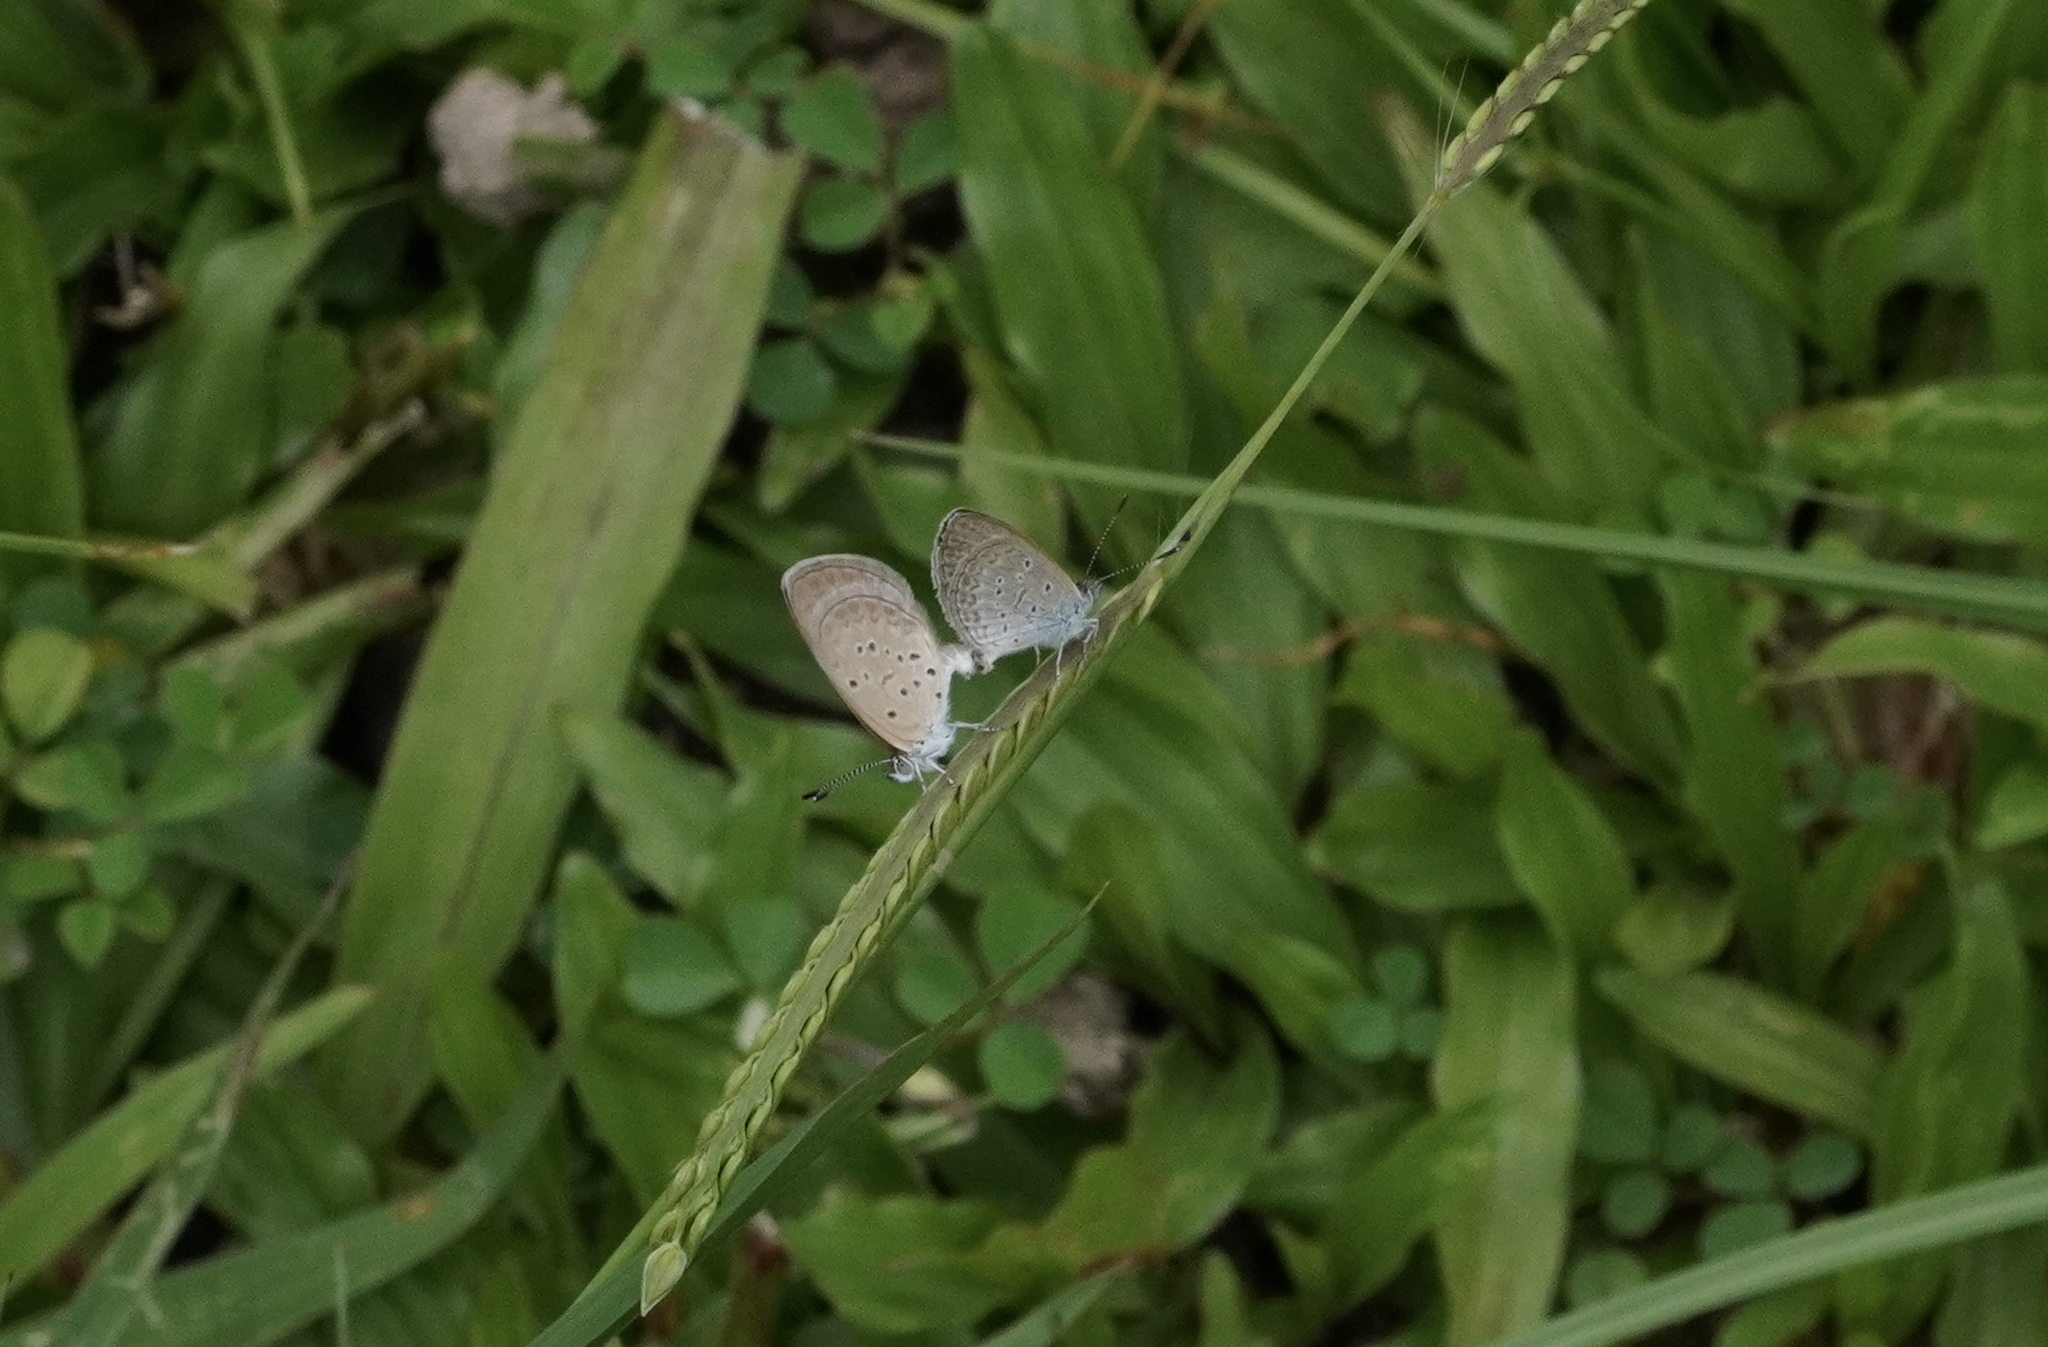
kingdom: Animalia
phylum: Arthropoda
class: Insecta
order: Lepidoptera
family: Lycaenidae
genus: Zizina
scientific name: Zizina otis
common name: Lesser grass blue
